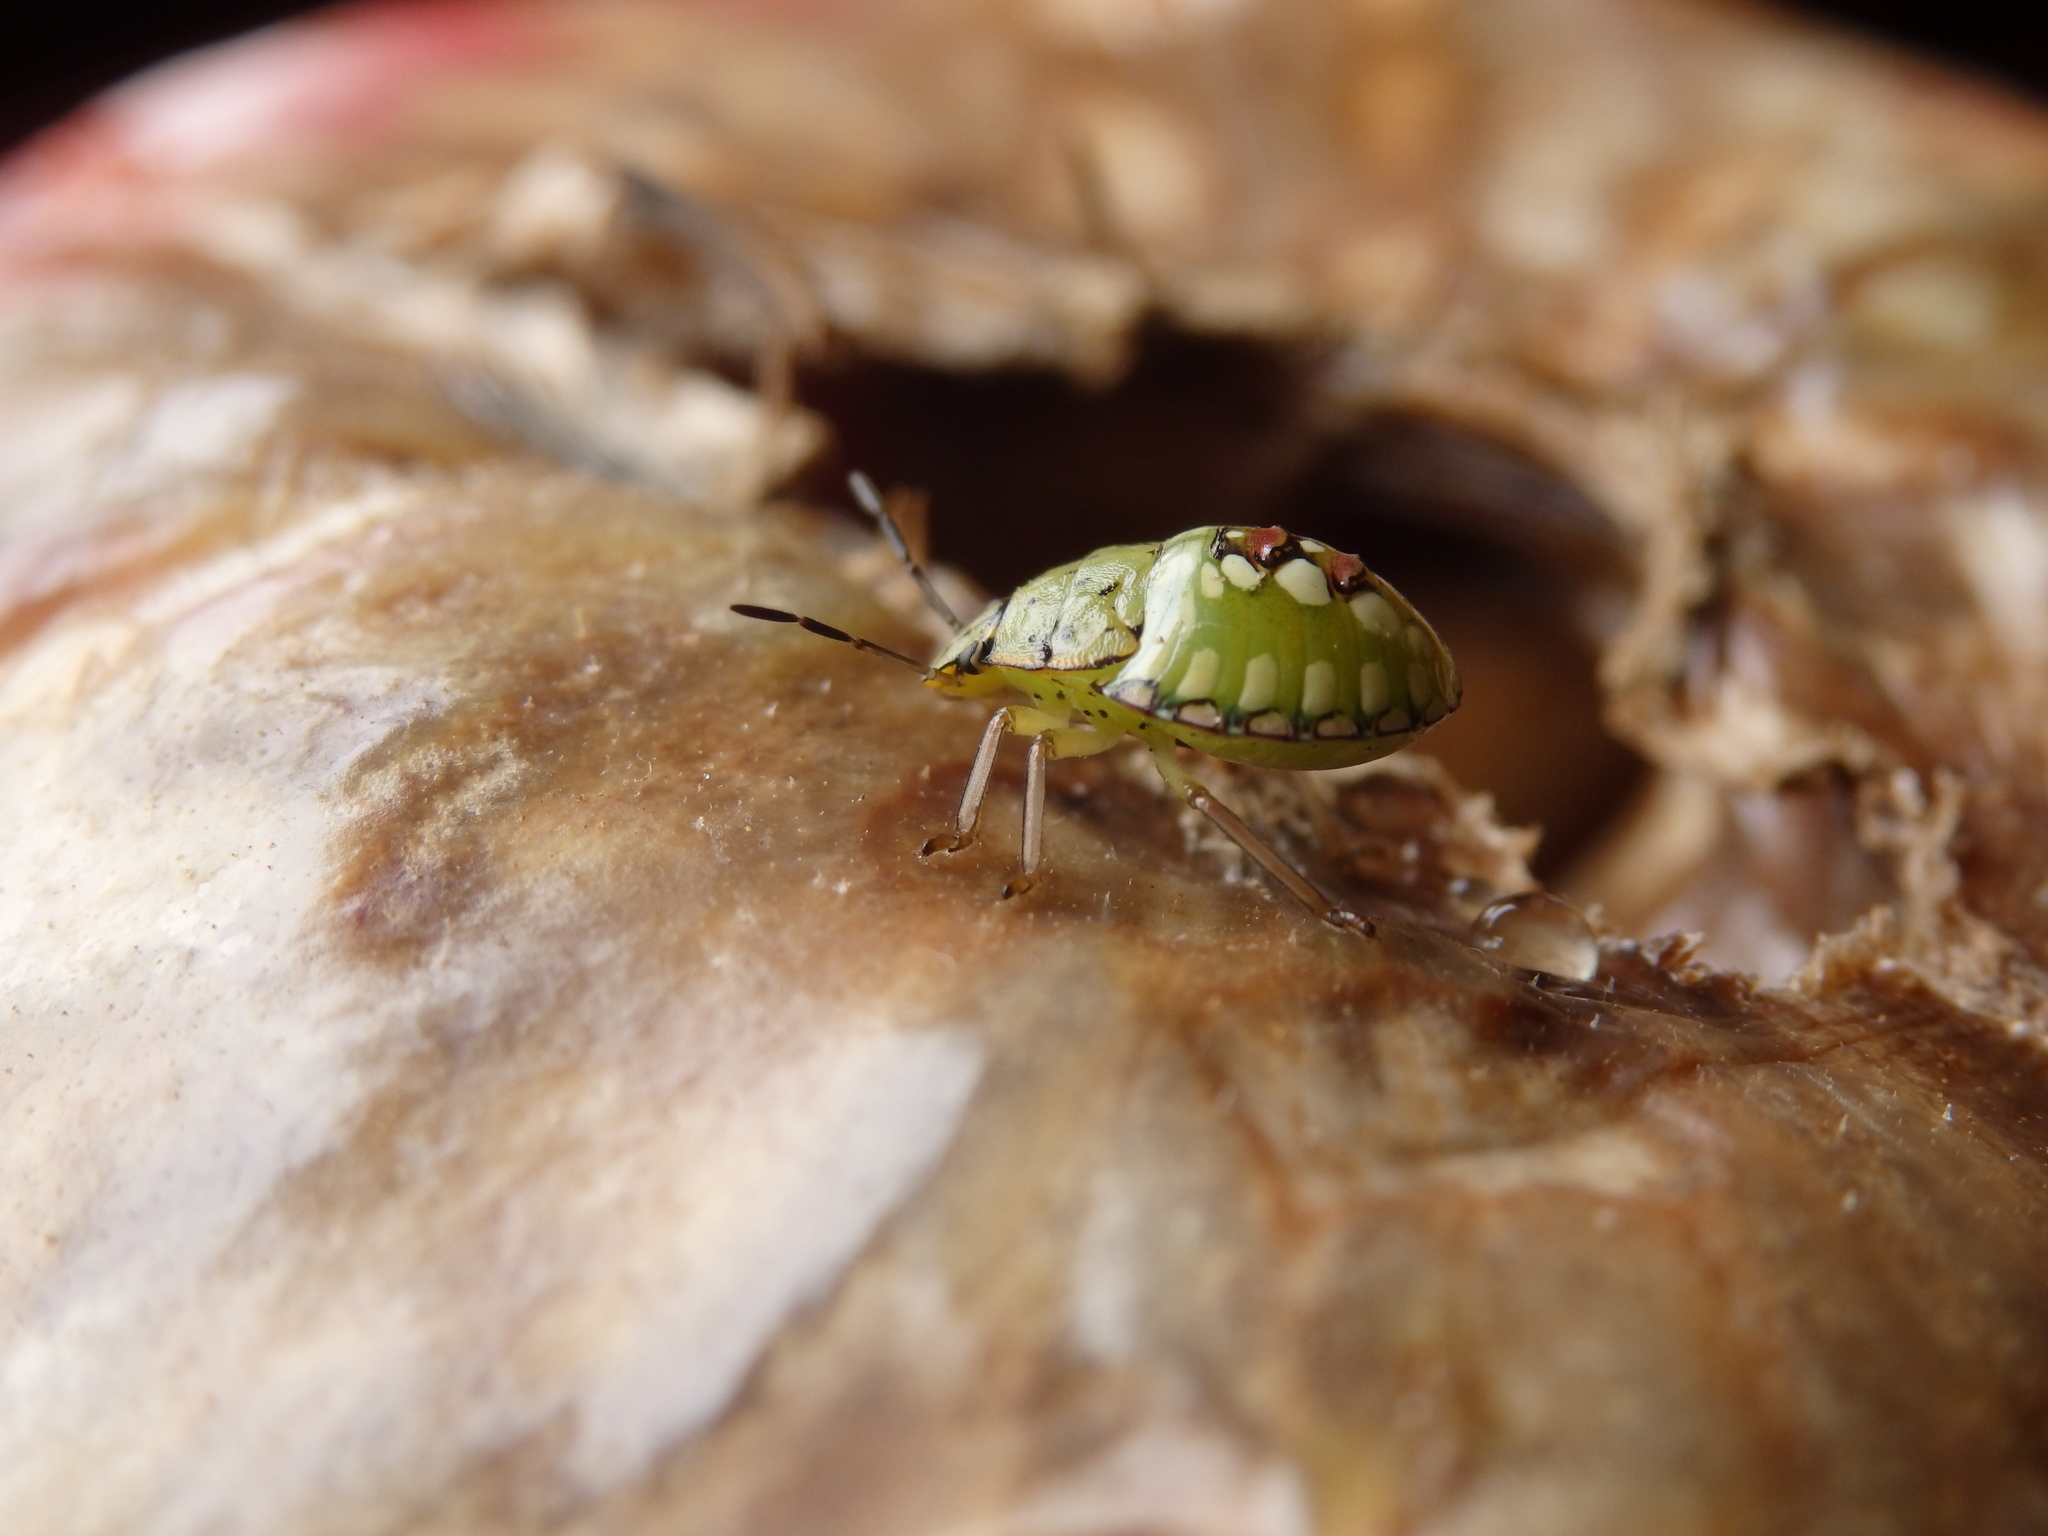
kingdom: Animalia
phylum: Arthropoda
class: Insecta
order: Hemiptera
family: Pentatomidae
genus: Nezara
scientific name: Nezara viridula
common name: Southern green stink bug
